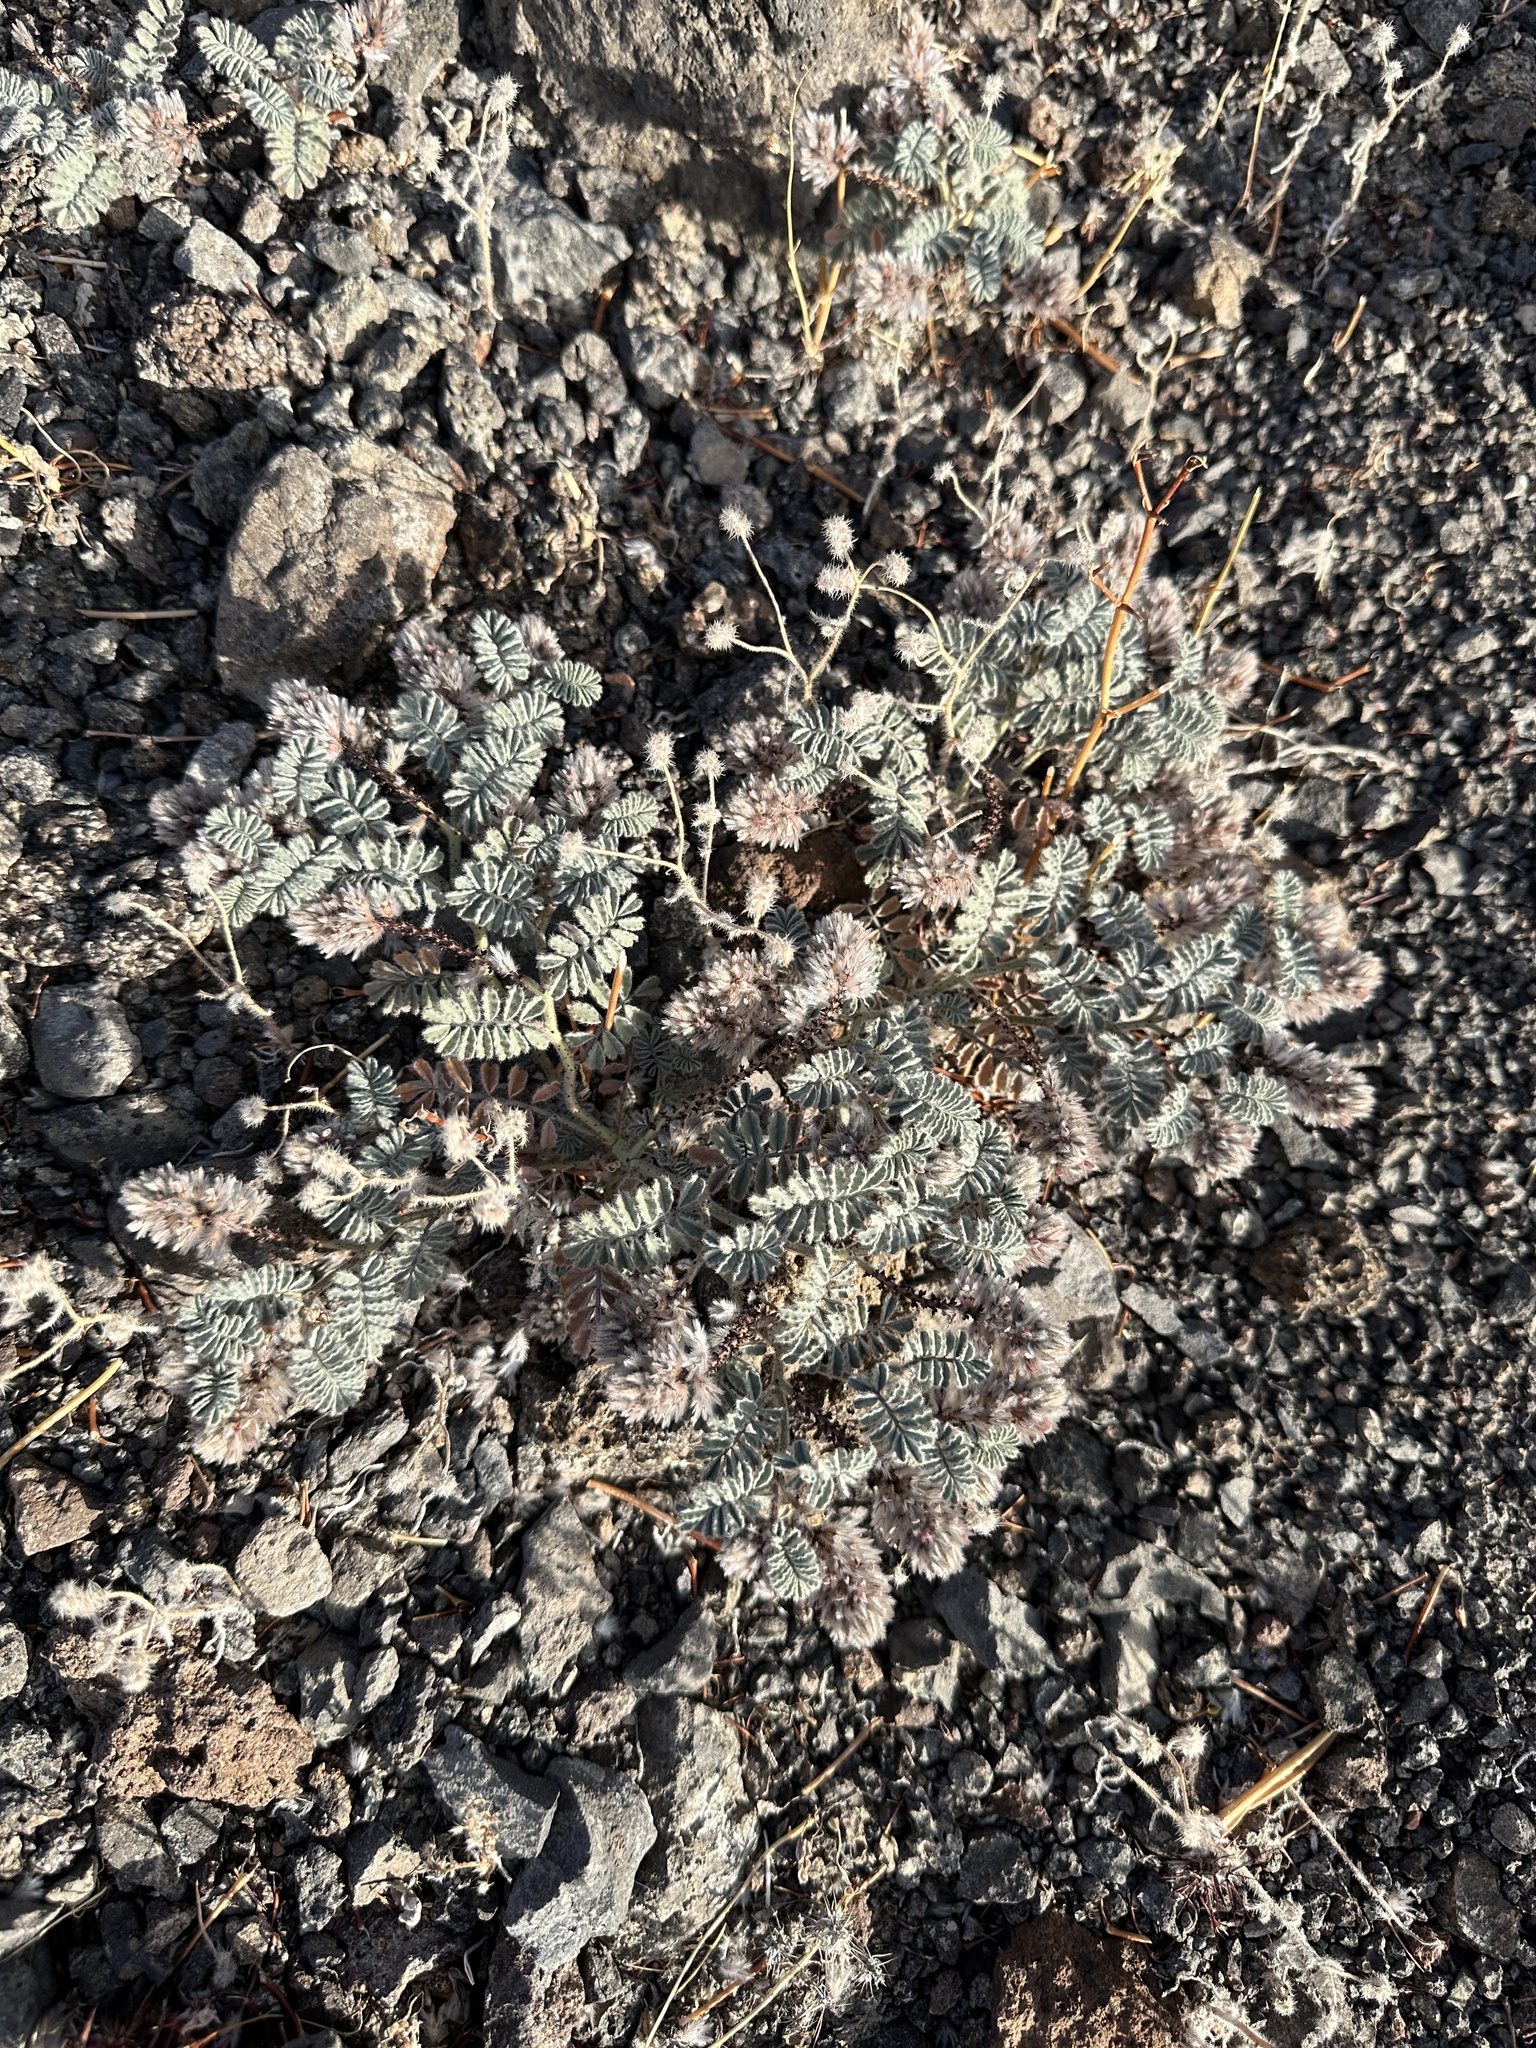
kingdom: Plantae
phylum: Tracheophyta
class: Magnoliopsida
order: Fabales
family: Fabaceae
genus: Dalea
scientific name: Dalea mollissima
